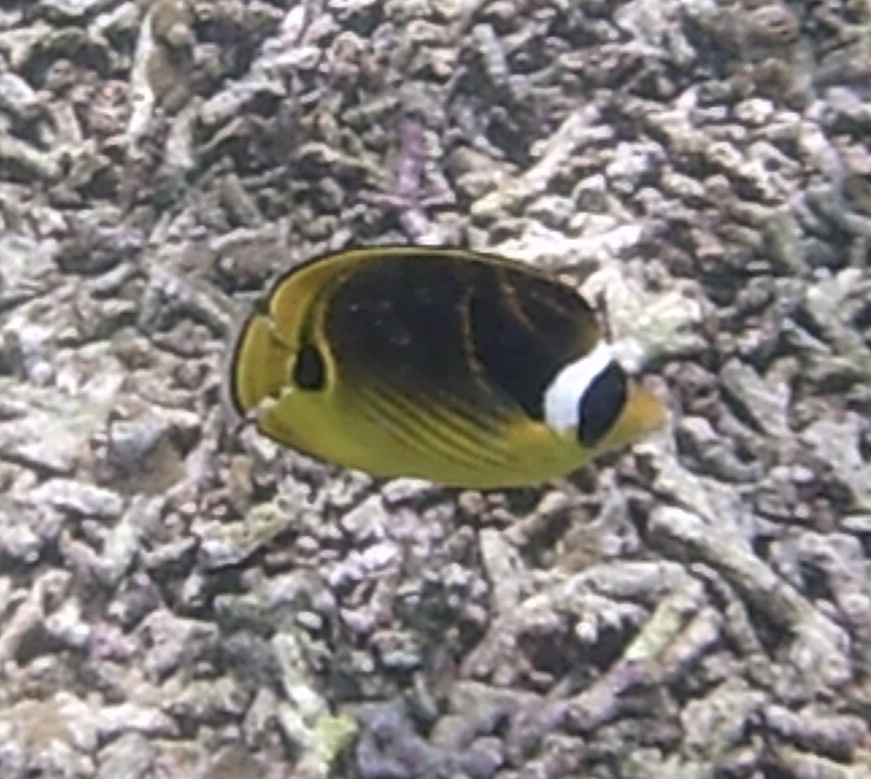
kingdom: Animalia
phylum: Chordata
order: Perciformes
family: Chaetodontidae
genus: Chaetodon
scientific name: Chaetodon lunula
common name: Raccoon butterflyfish
